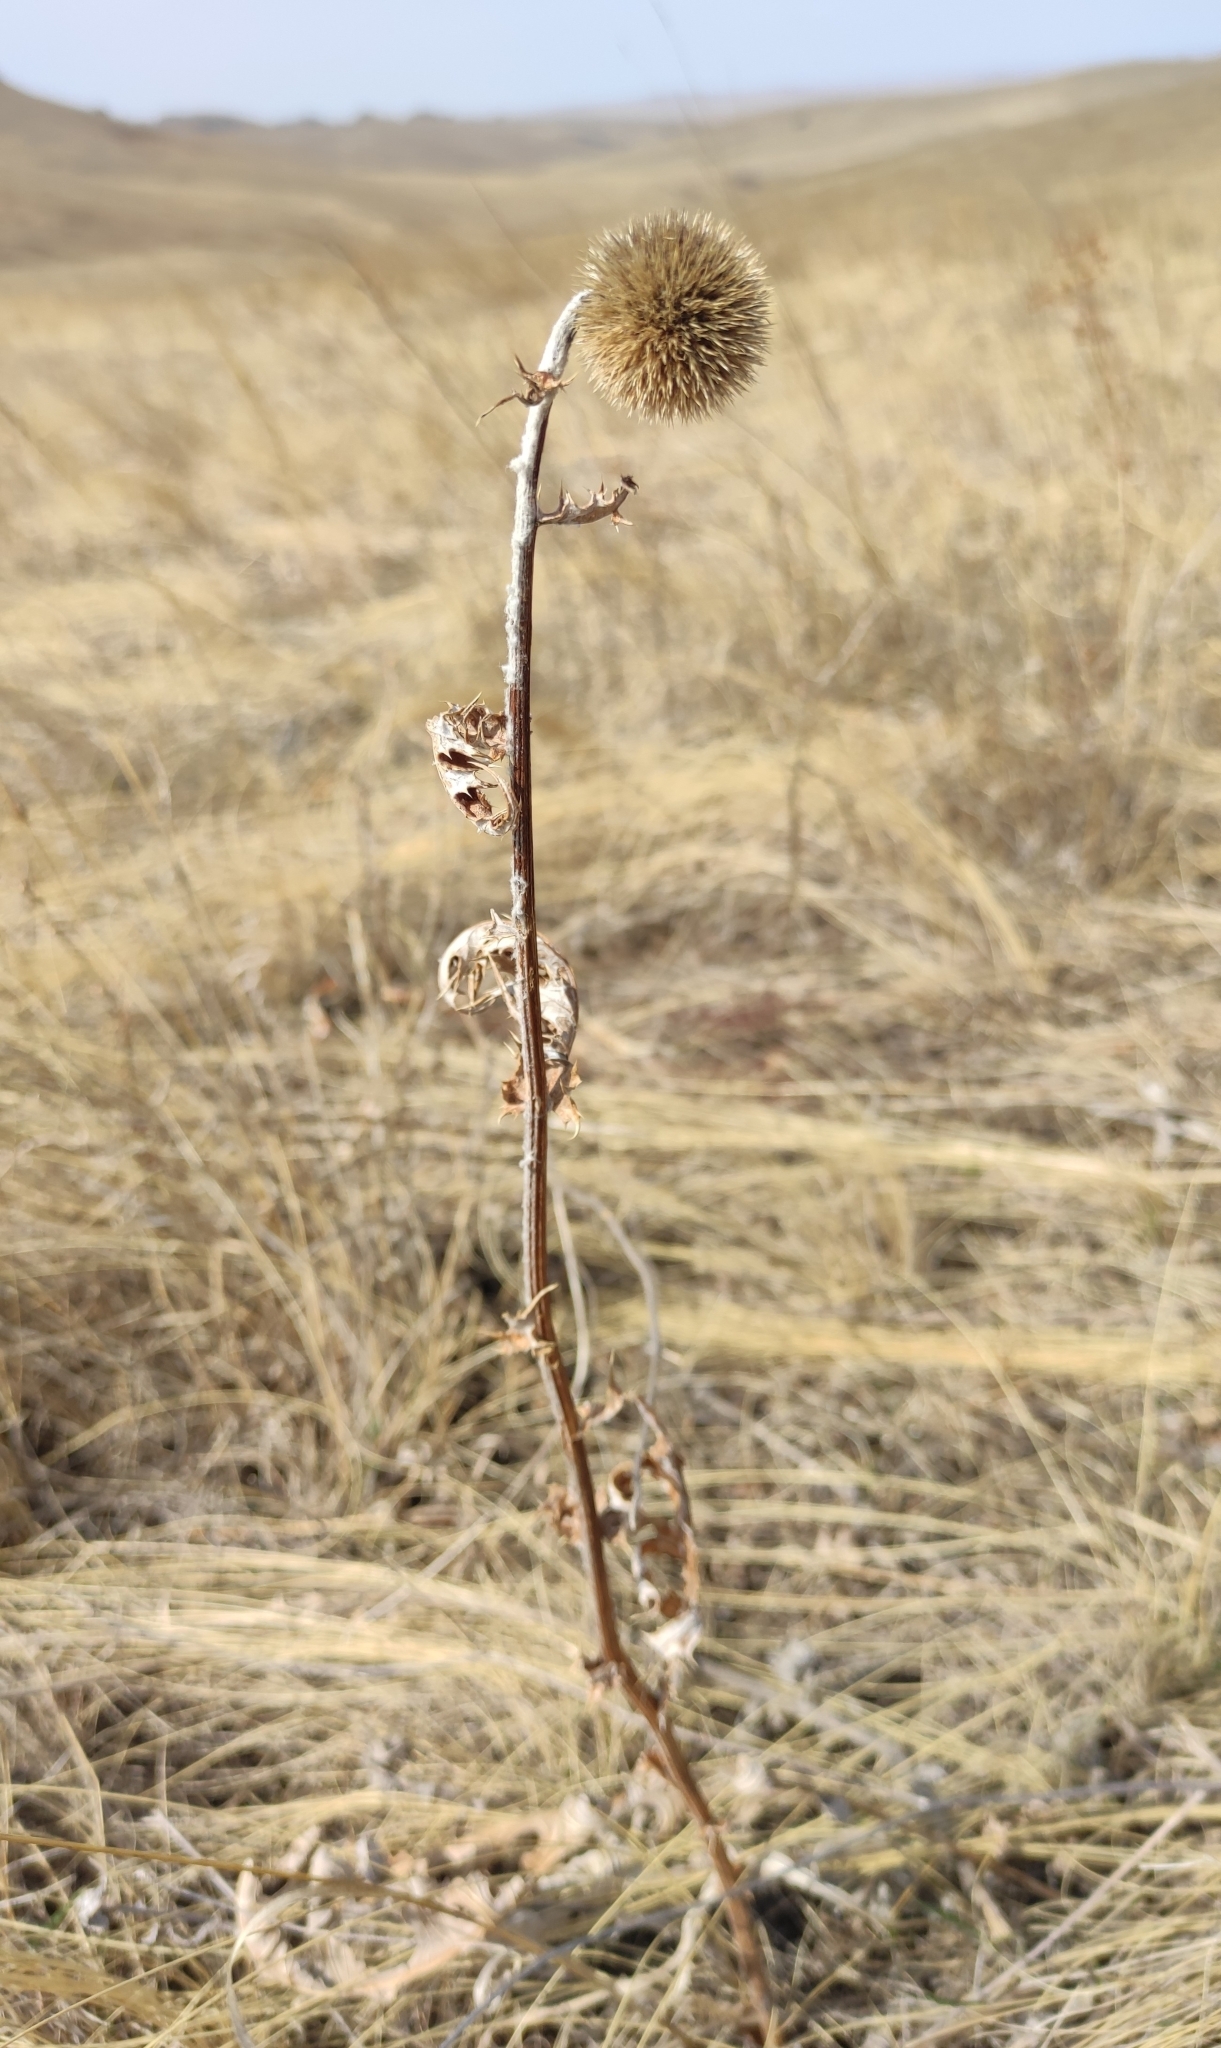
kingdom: Plantae
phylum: Tracheophyta
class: Magnoliopsida
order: Asterales
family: Asteraceae
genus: Echinops
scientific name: Echinops davuricus
